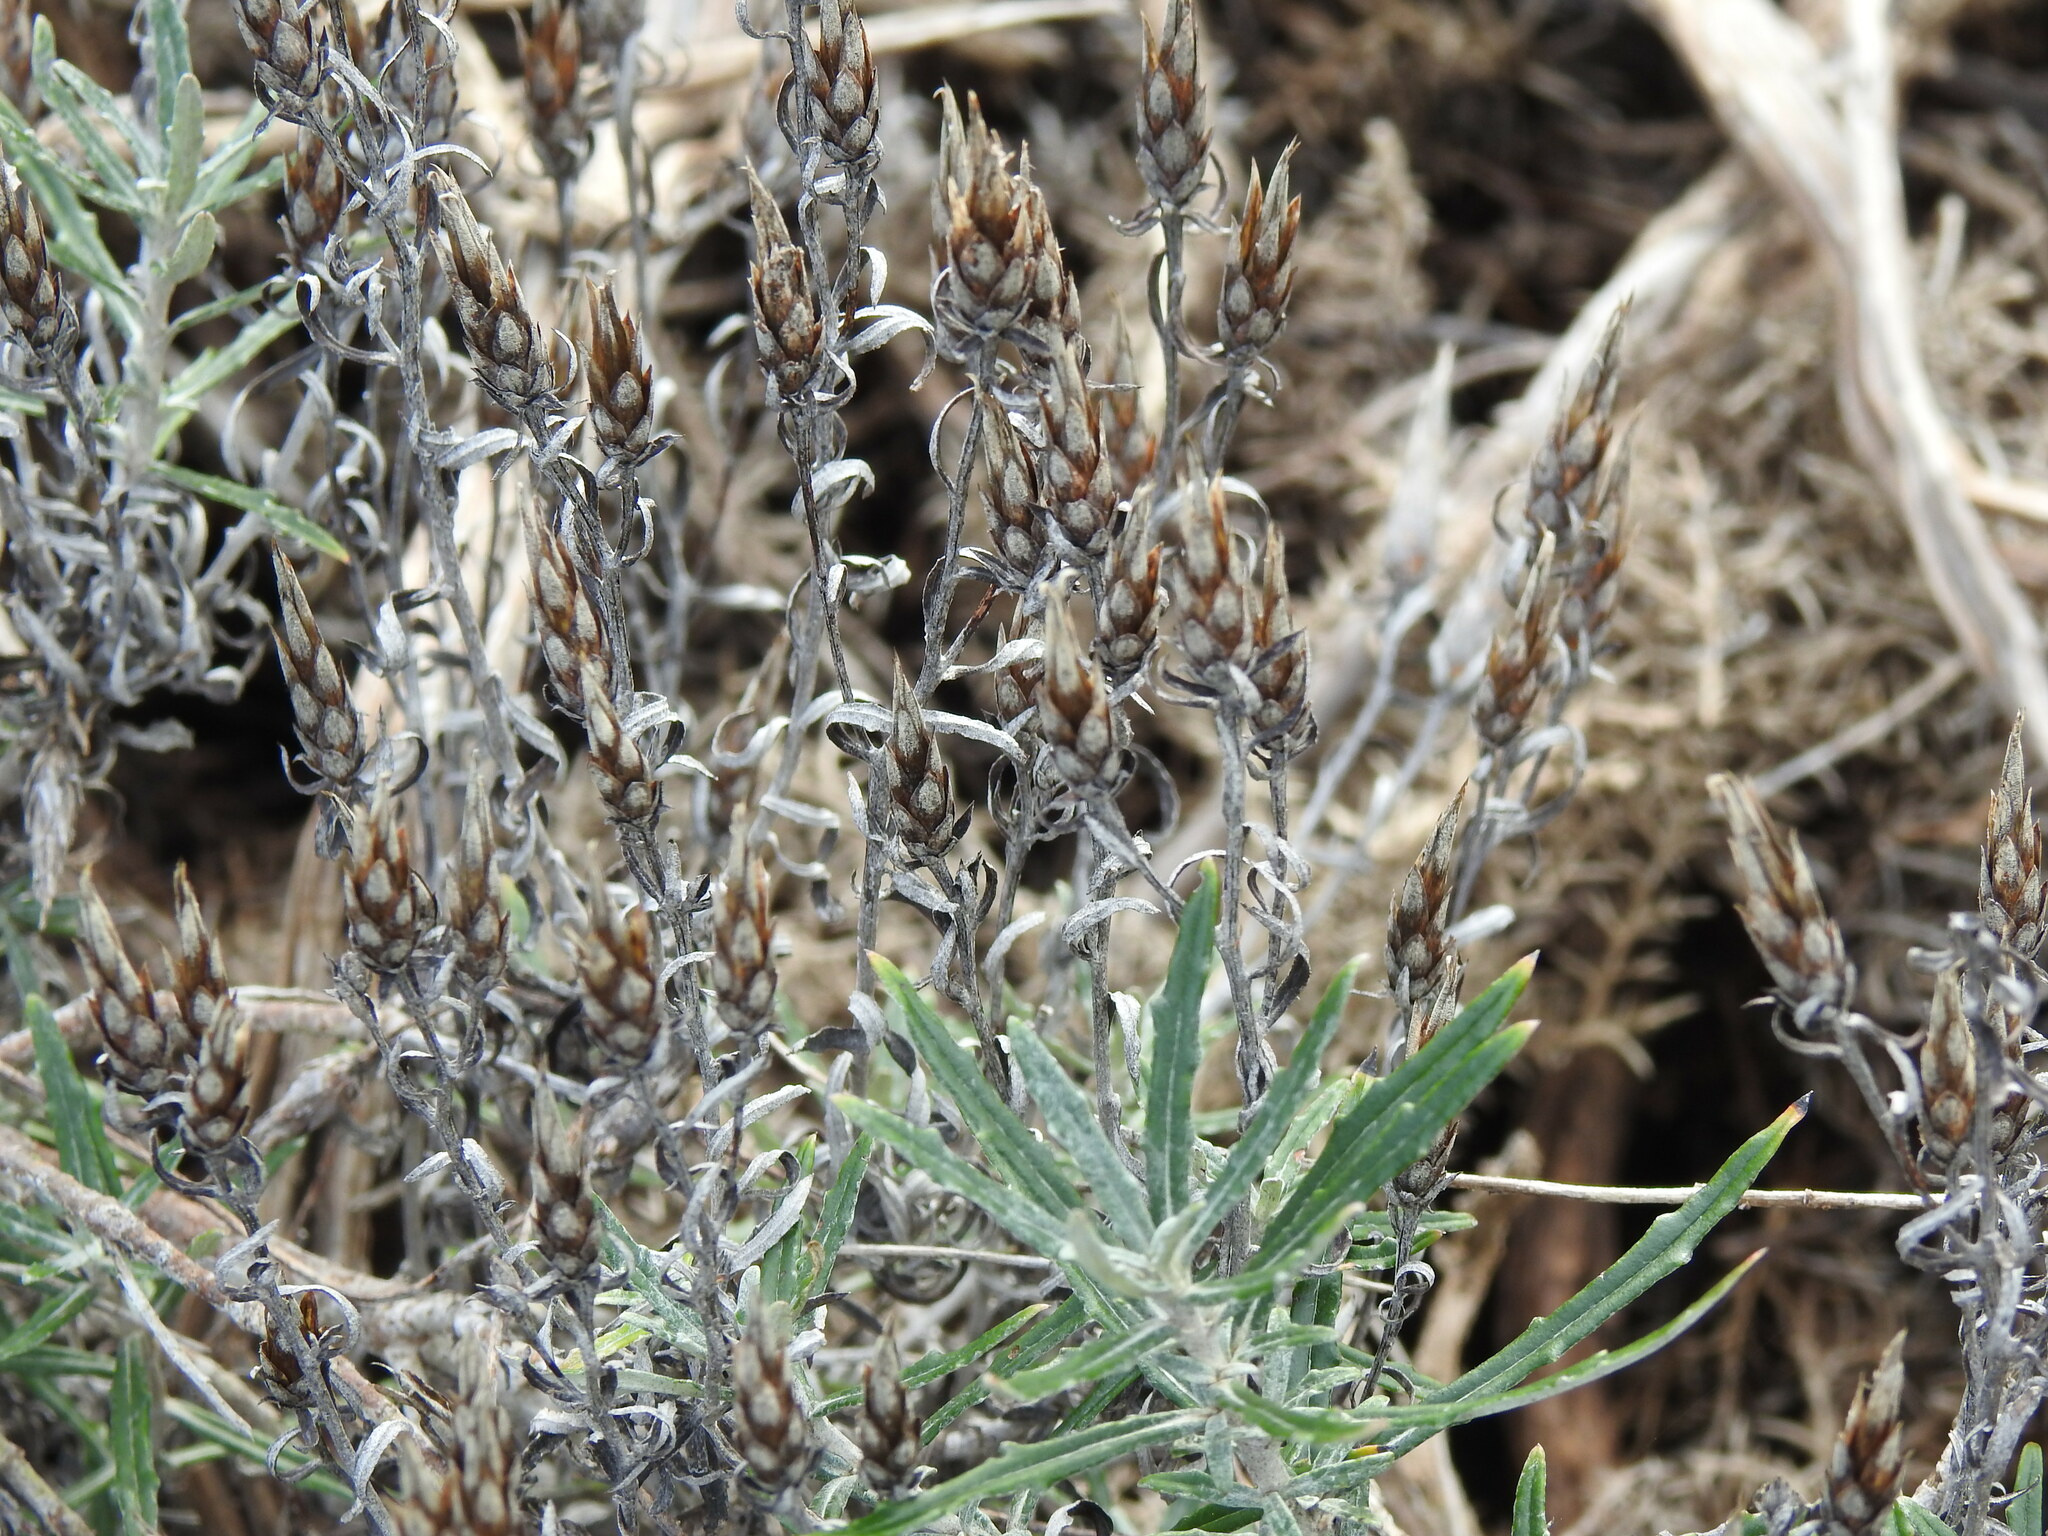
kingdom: Plantae
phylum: Tracheophyta
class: Magnoliopsida
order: Asterales
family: Asteraceae
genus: Staehelina
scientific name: Staehelina dubia
